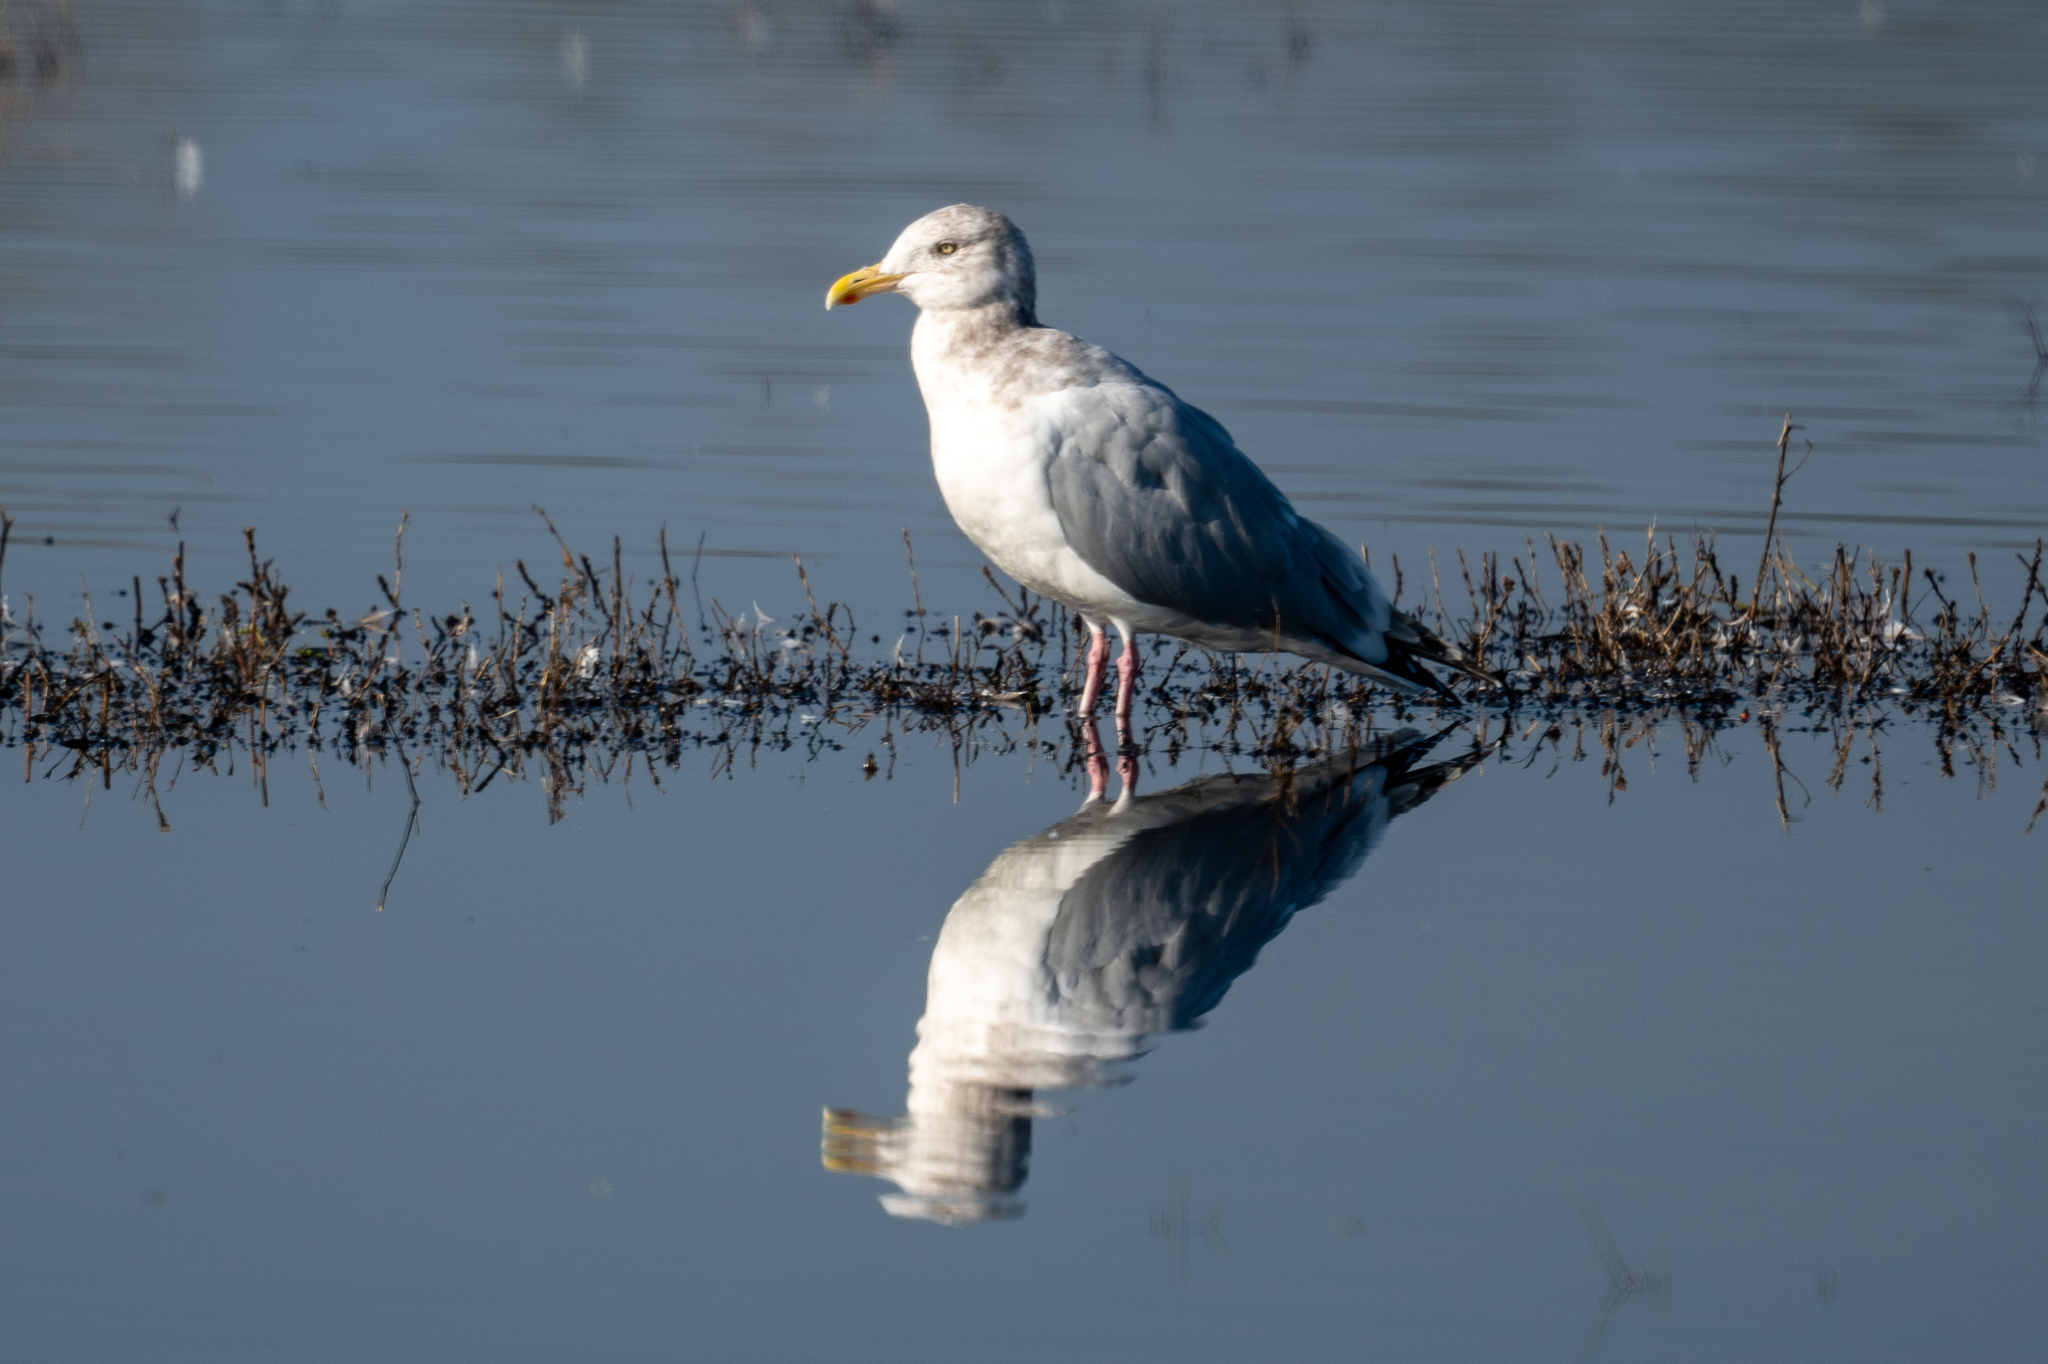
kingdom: Animalia
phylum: Chordata
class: Aves
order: Charadriiformes
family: Laridae
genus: Larus
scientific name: Larus argentatus
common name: Herring gull
